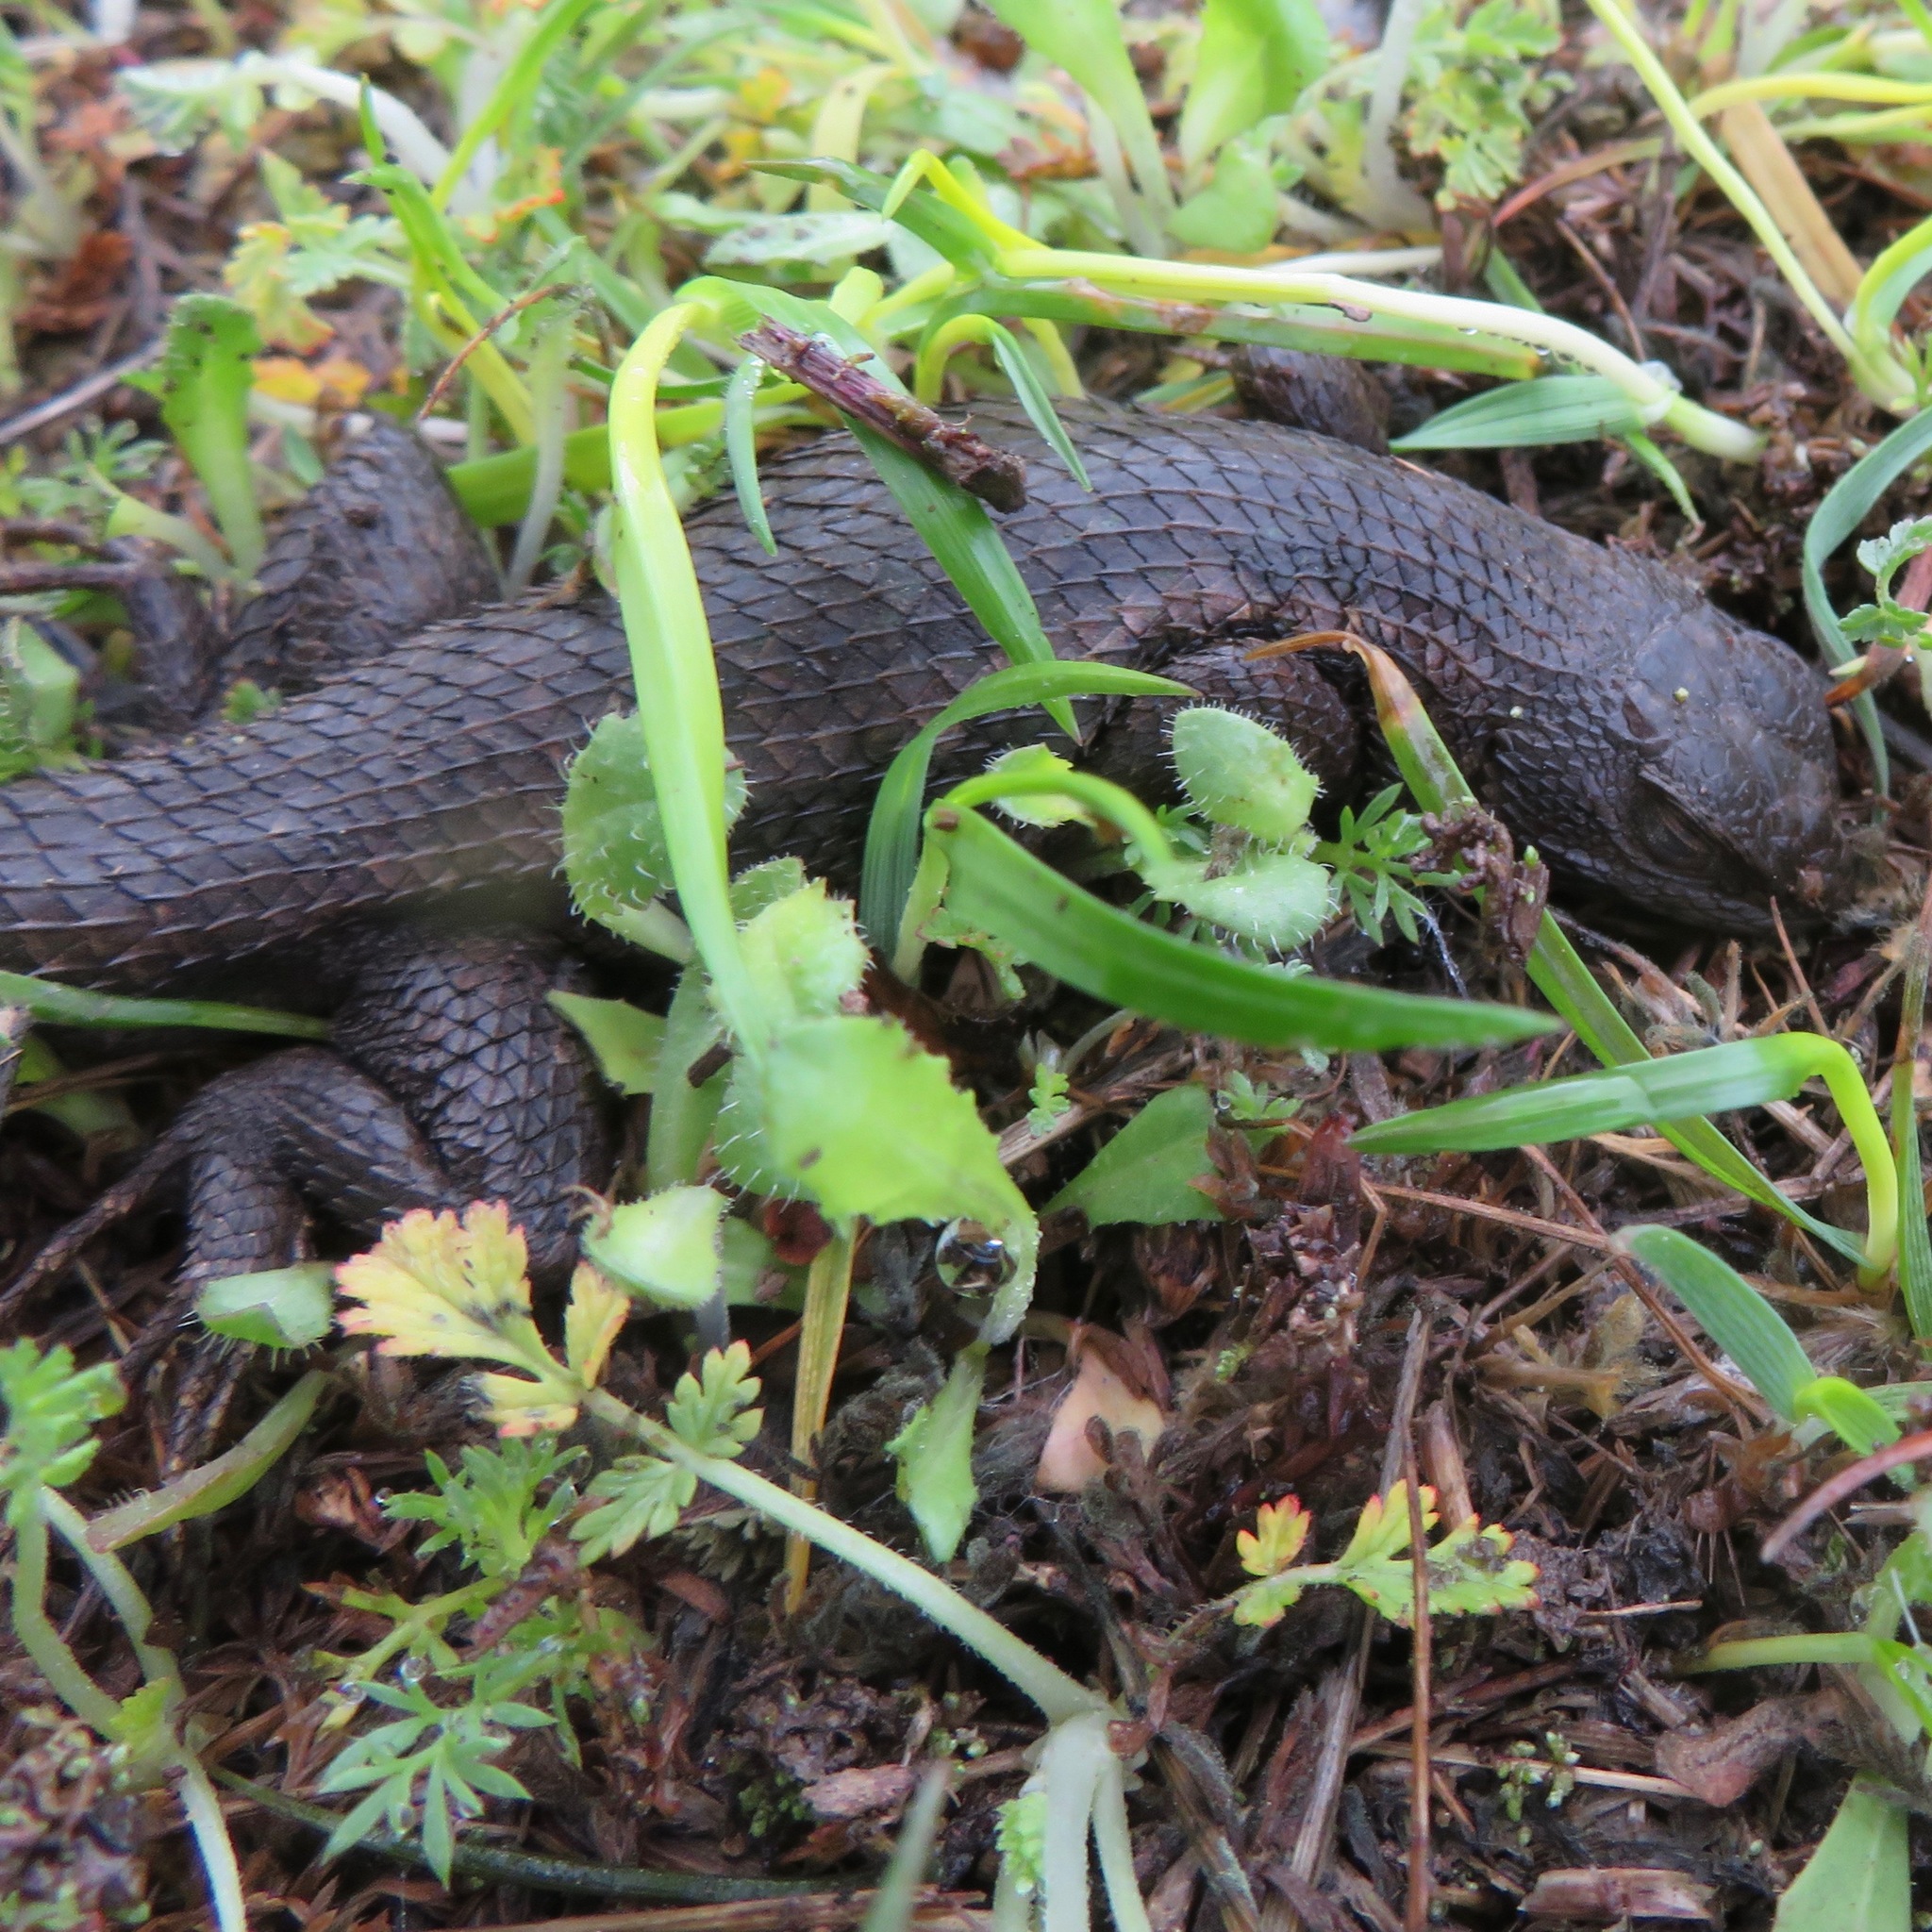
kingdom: Animalia
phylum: Chordata
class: Squamata
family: Phrynosomatidae
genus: Sceloporus
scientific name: Sceloporus occidentalis
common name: Western fence lizard
